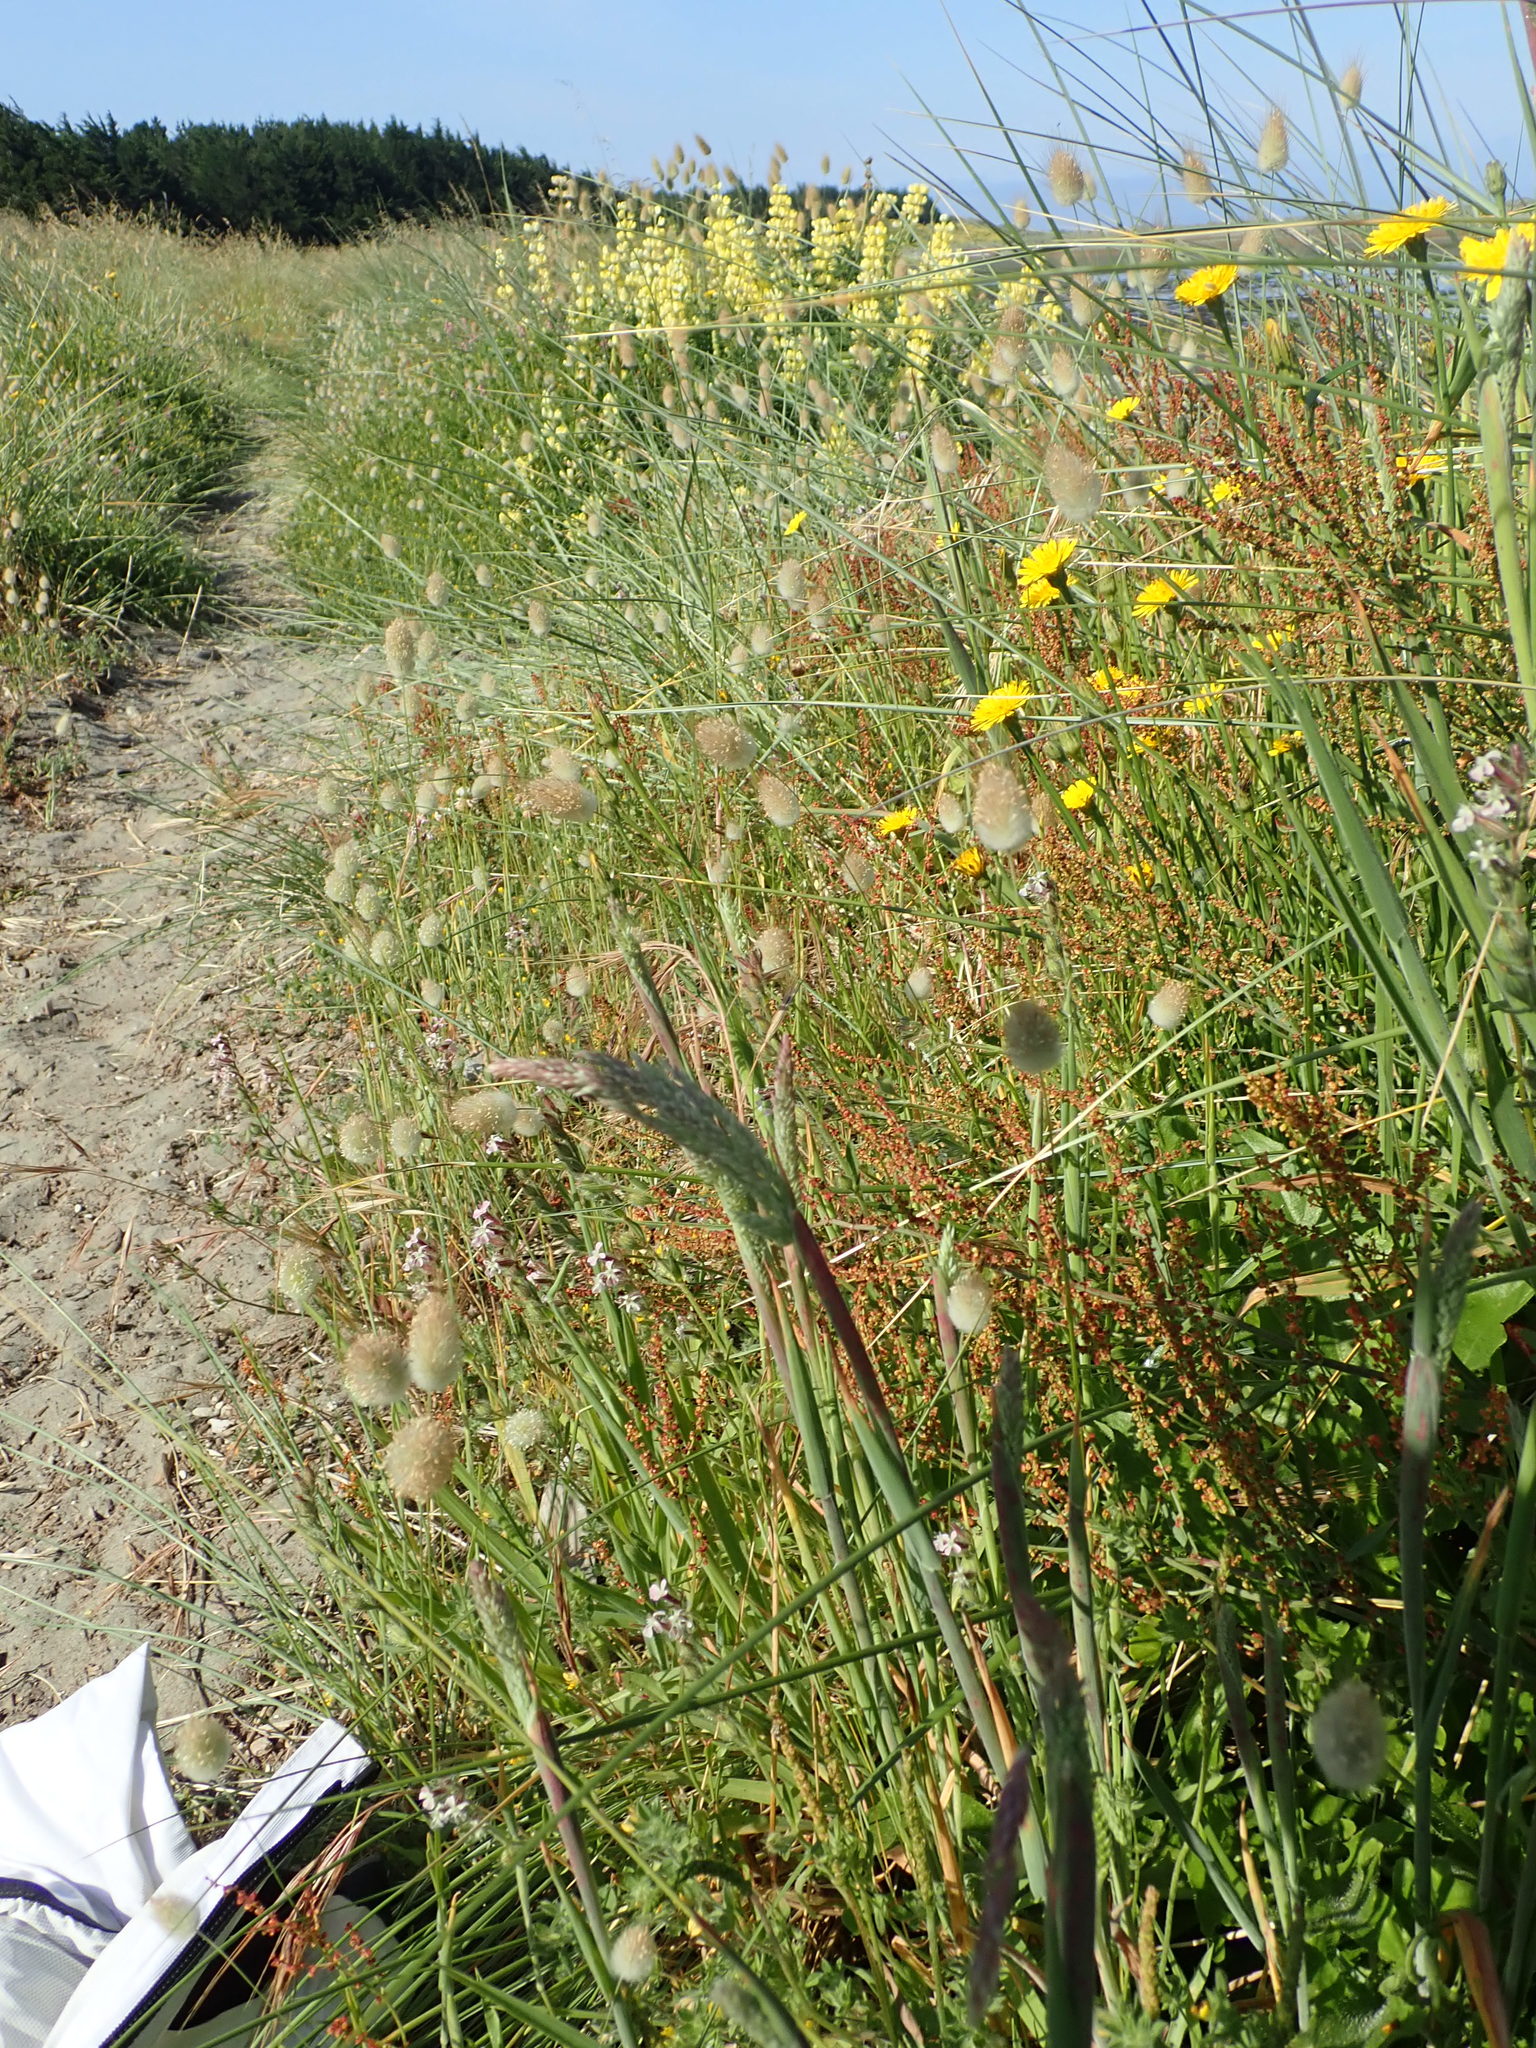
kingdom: Plantae
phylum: Tracheophyta
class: Magnoliopsida
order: Caryophyllales
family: Polygonaceae
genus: Rumex
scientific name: Rumex acetosella
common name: Common sheep sorrel
